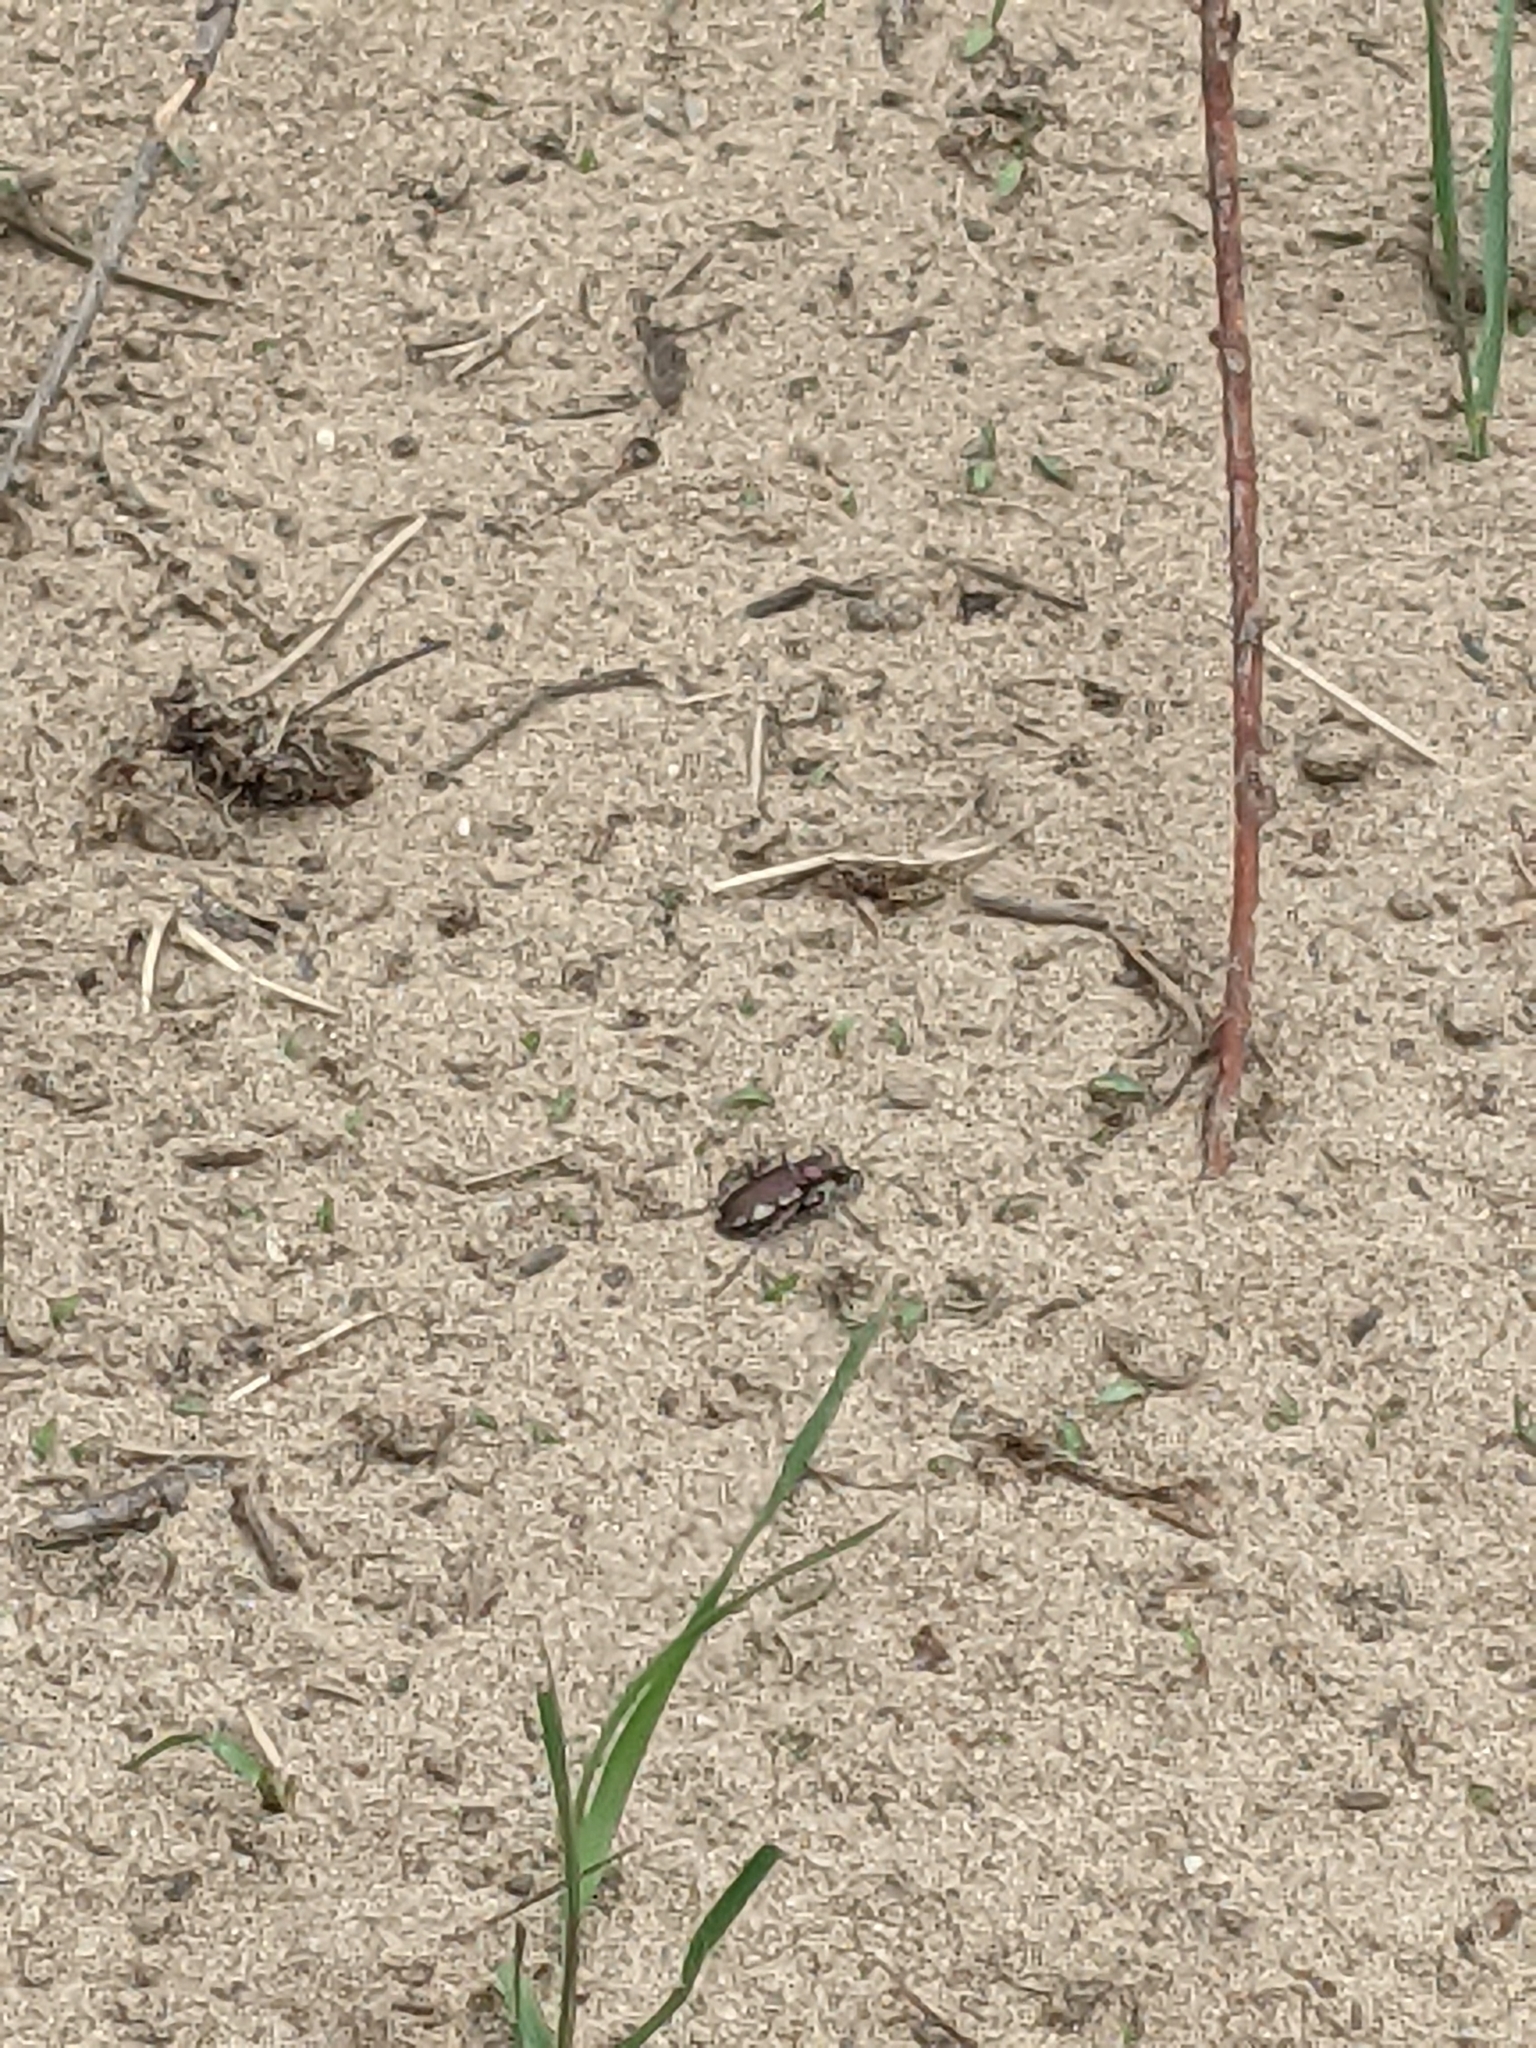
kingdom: Animalia
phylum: Arthropoda
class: Insecta
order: Coleoptera
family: Carabidae
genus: Cicindela
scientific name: Cicindela scutellaris
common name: Festive tiger beetle
